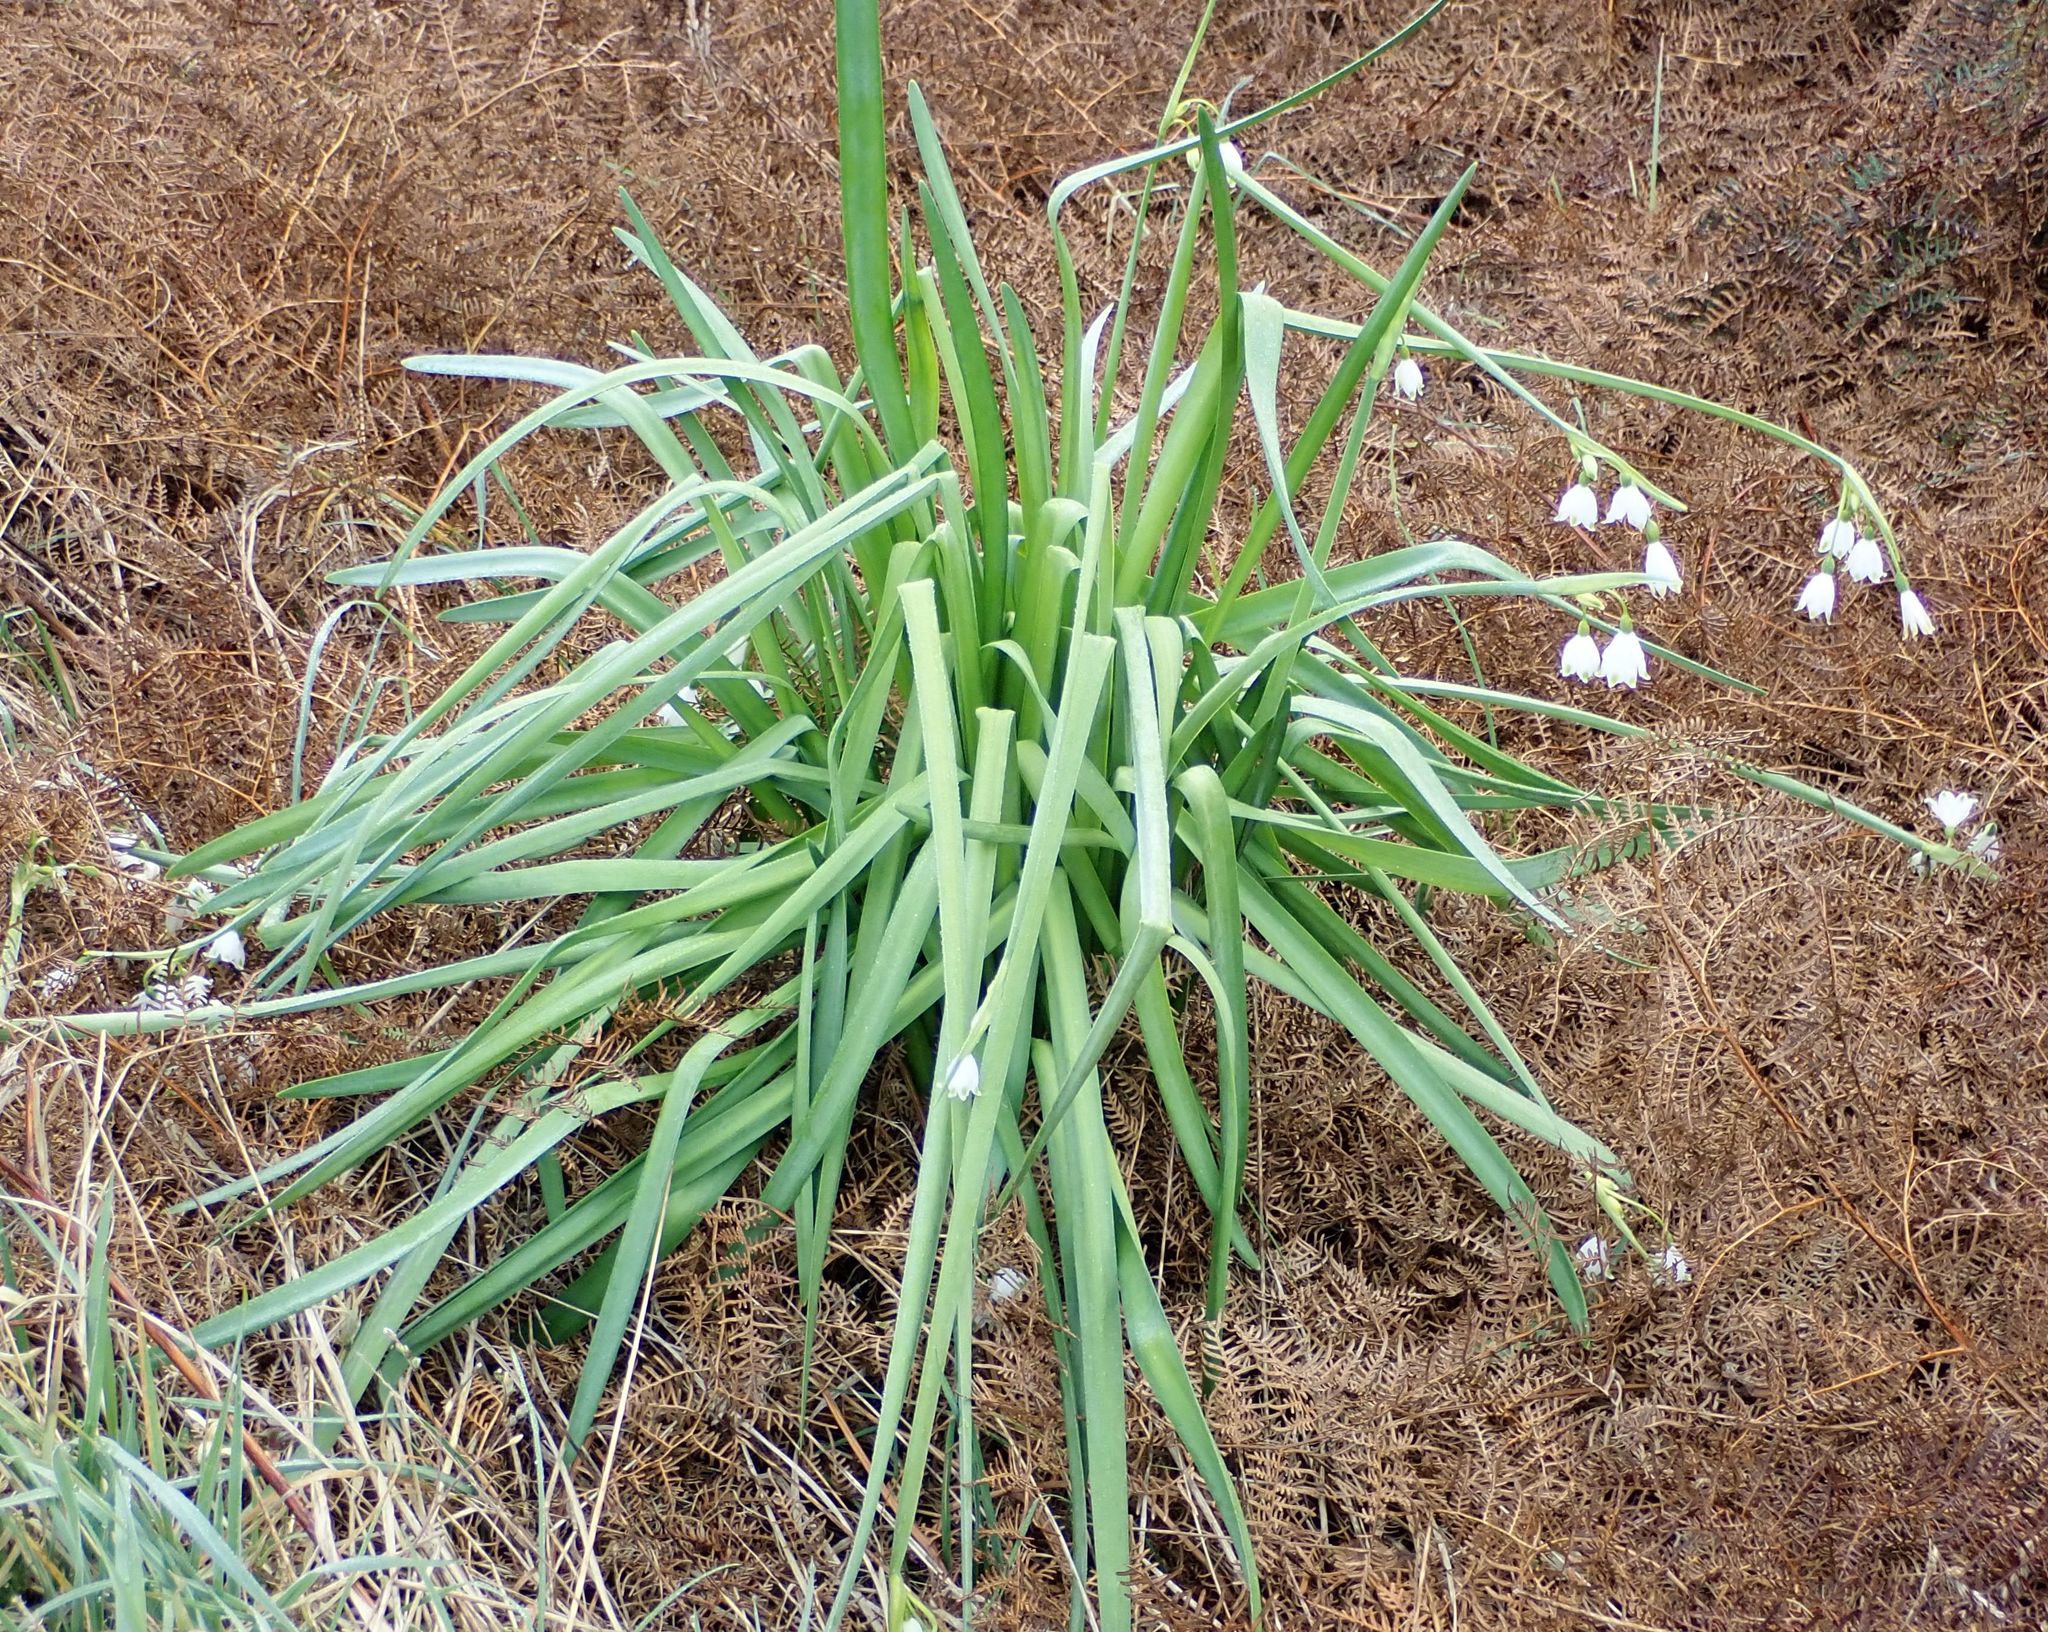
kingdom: Plantae
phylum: Tracheophyta
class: Liliopsida
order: Asparagales
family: Amaryllidaceae
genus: Leucojum
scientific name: Leucojum aestivum
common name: Summer snowflake
